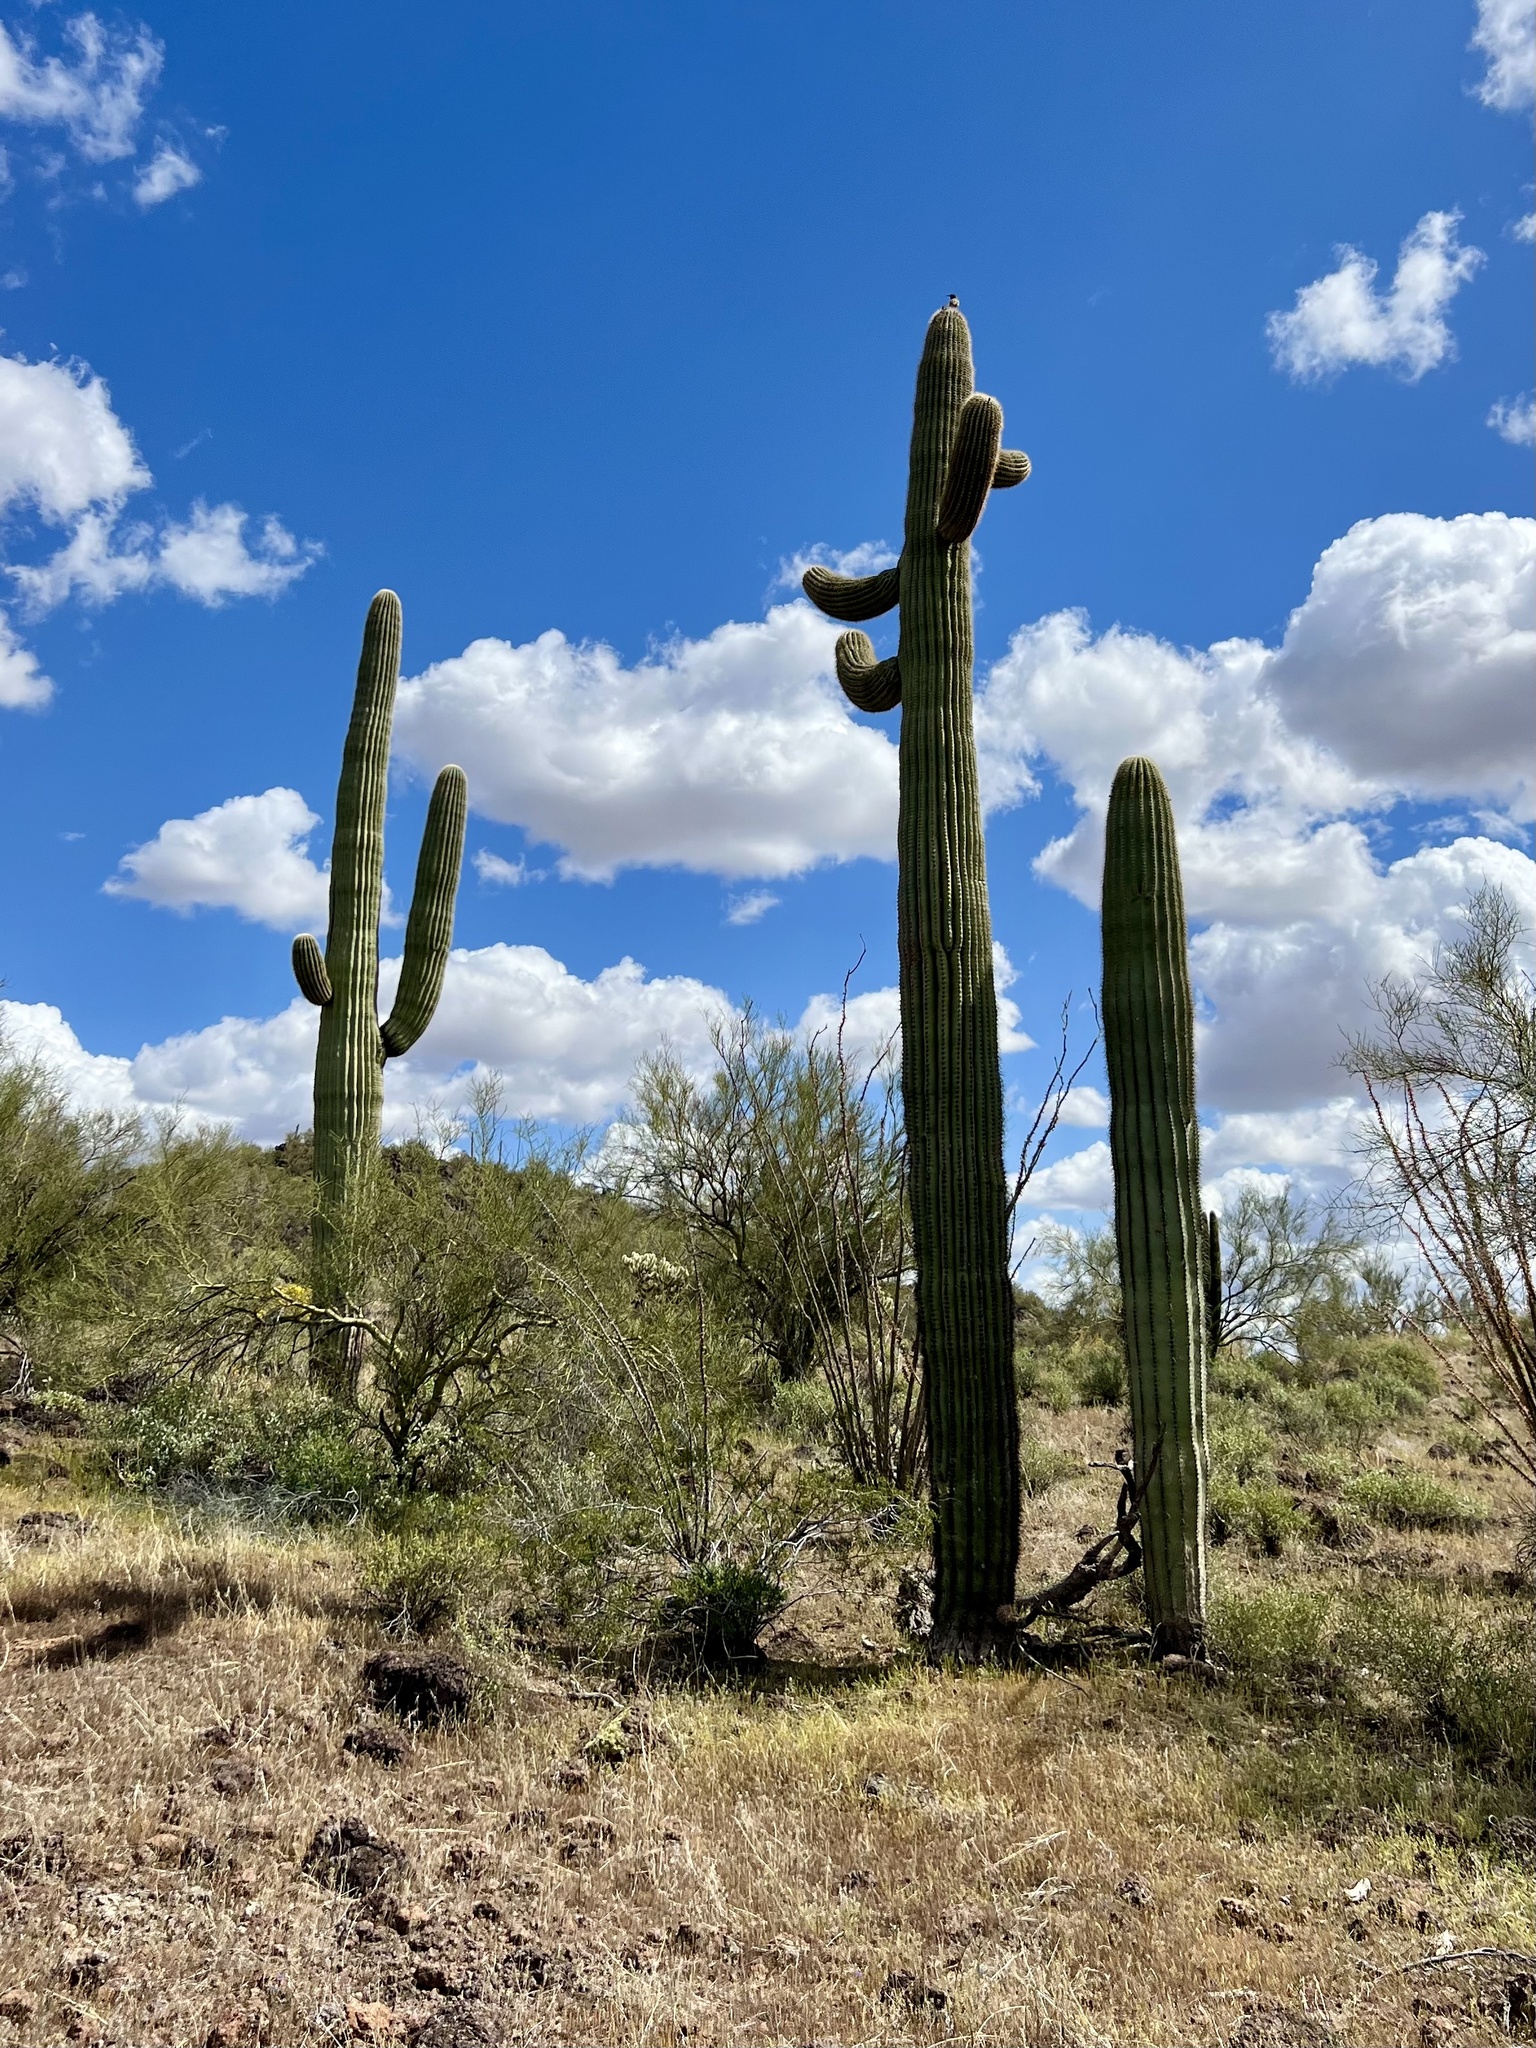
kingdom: Plantae
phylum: Tracheophyta
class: Magnoliopsida
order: Caryophyllales
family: Cactaceae
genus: Carnegiea
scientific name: Carnegiea gigantea
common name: Saguaro
